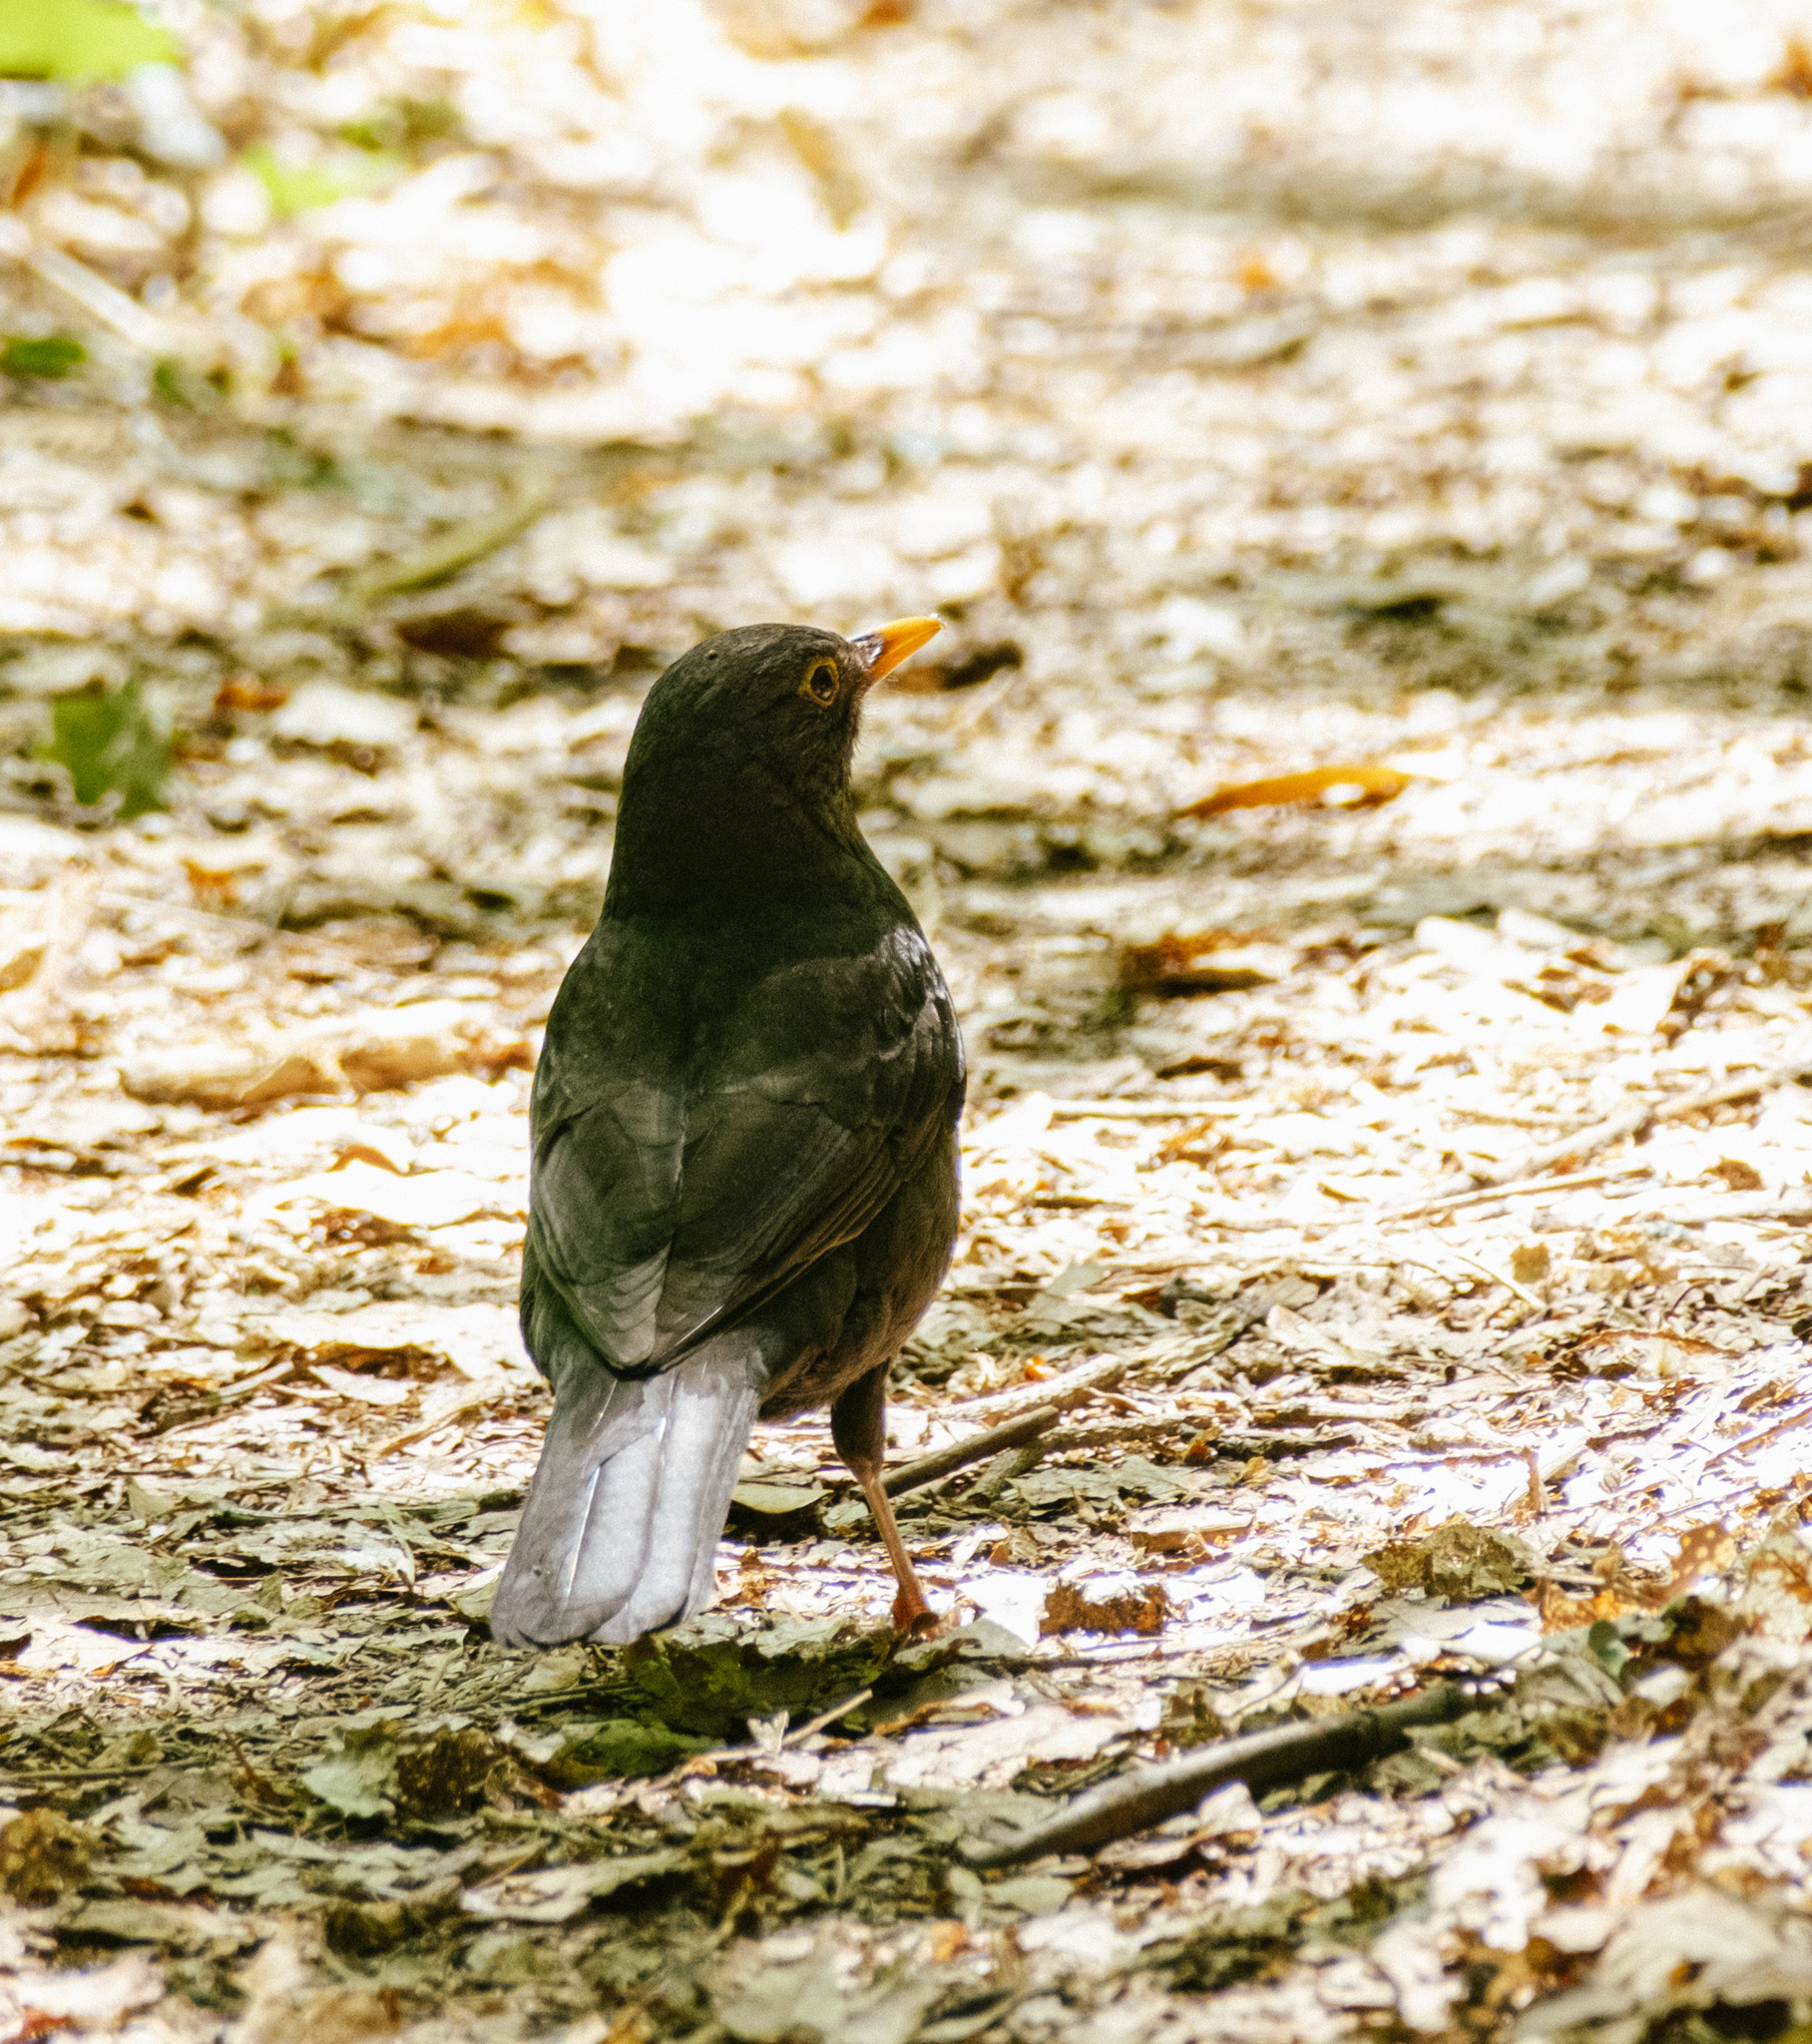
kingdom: Animalia
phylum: Chordata
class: Aves
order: Passeriformes
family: Turdidae
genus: Turdus
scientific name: Turdus merula
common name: Common blackbird
